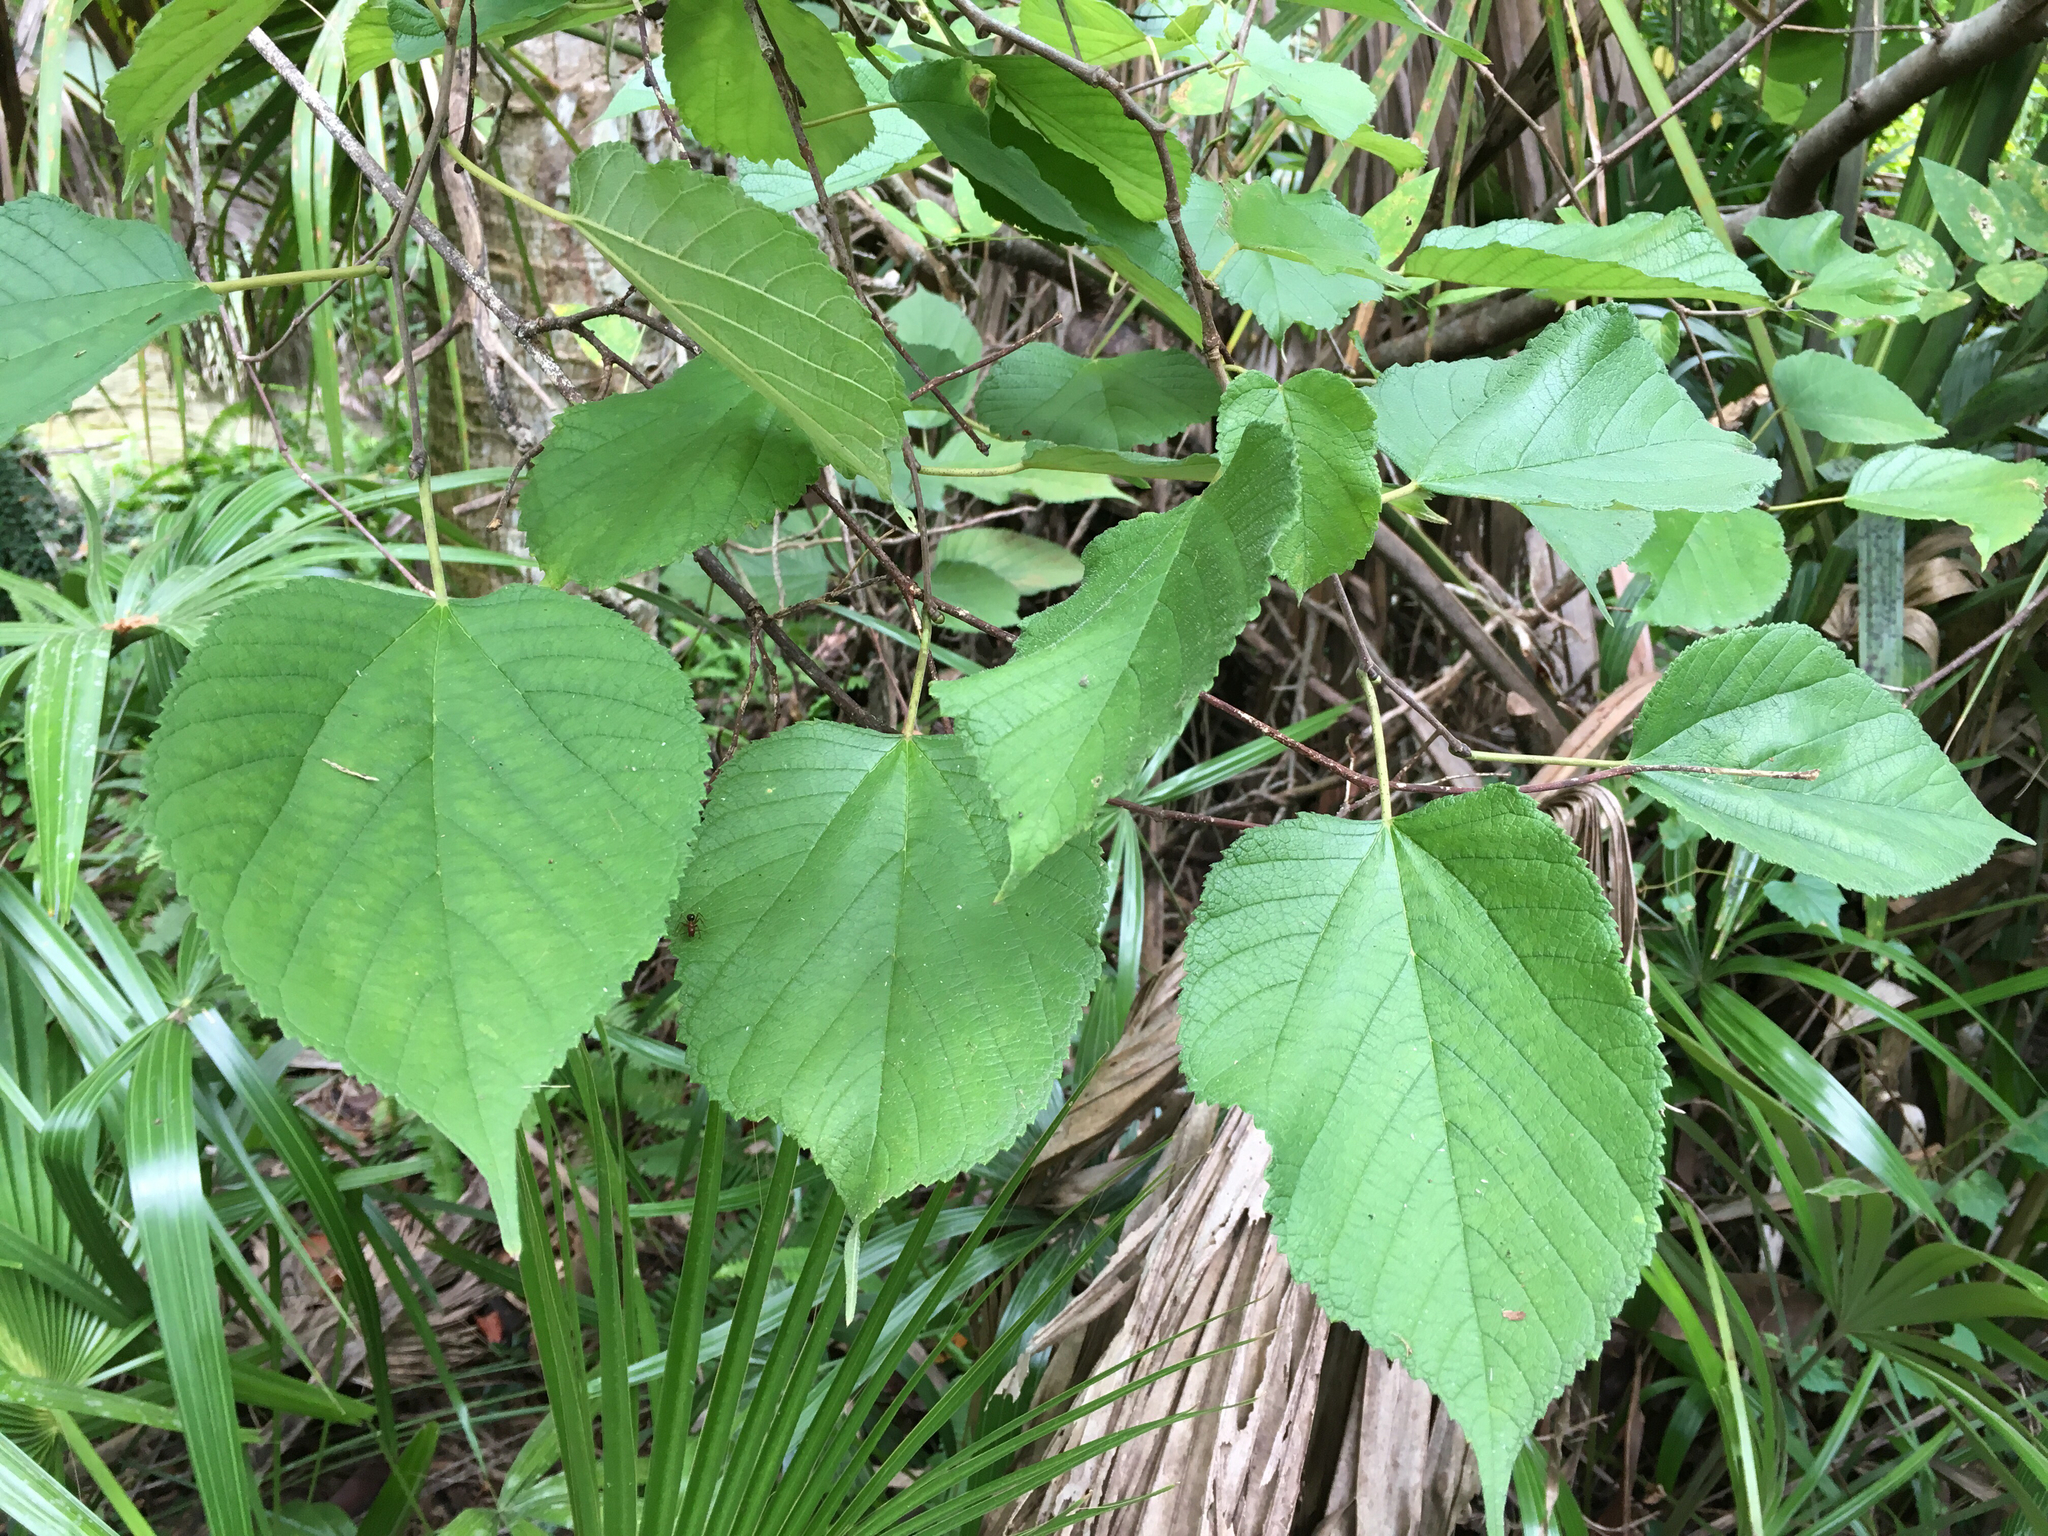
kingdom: Plantae
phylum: Tracheophyta
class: Magnoliopsida
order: Rosales
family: Moraceae
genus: Morus
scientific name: Morus rubra
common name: Red mulberry
